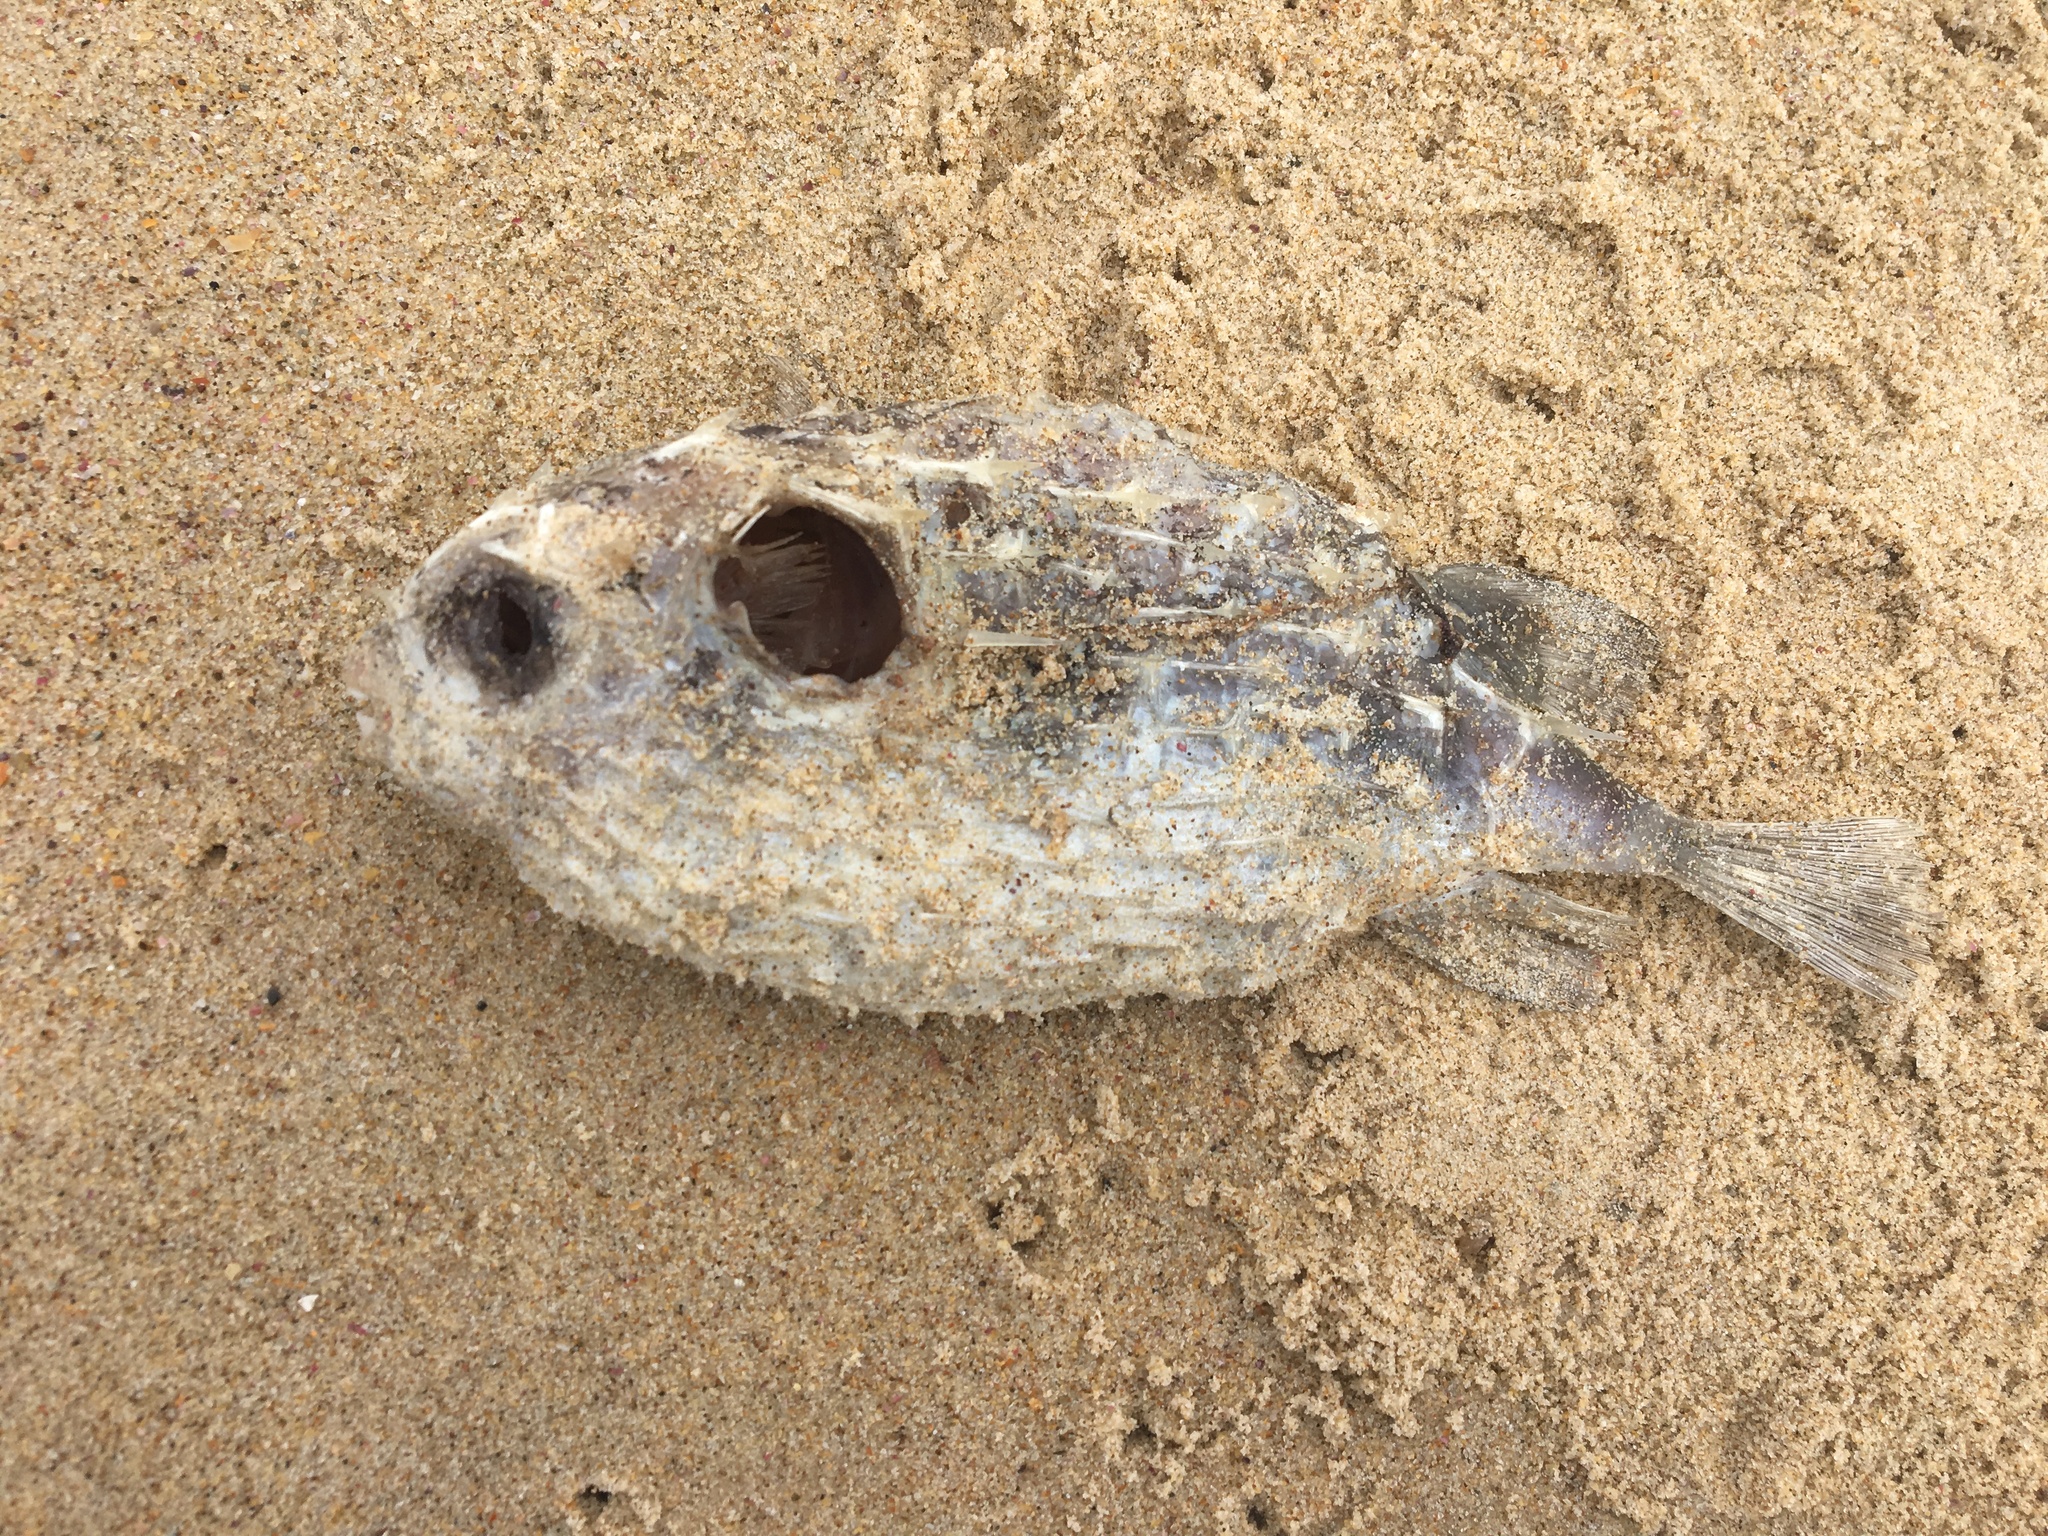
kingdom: Animalia
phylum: Chordata
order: Tetraodontiformes
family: Diodontidae
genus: Allomycterus
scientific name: Allomycterus pilatus
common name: No common name
